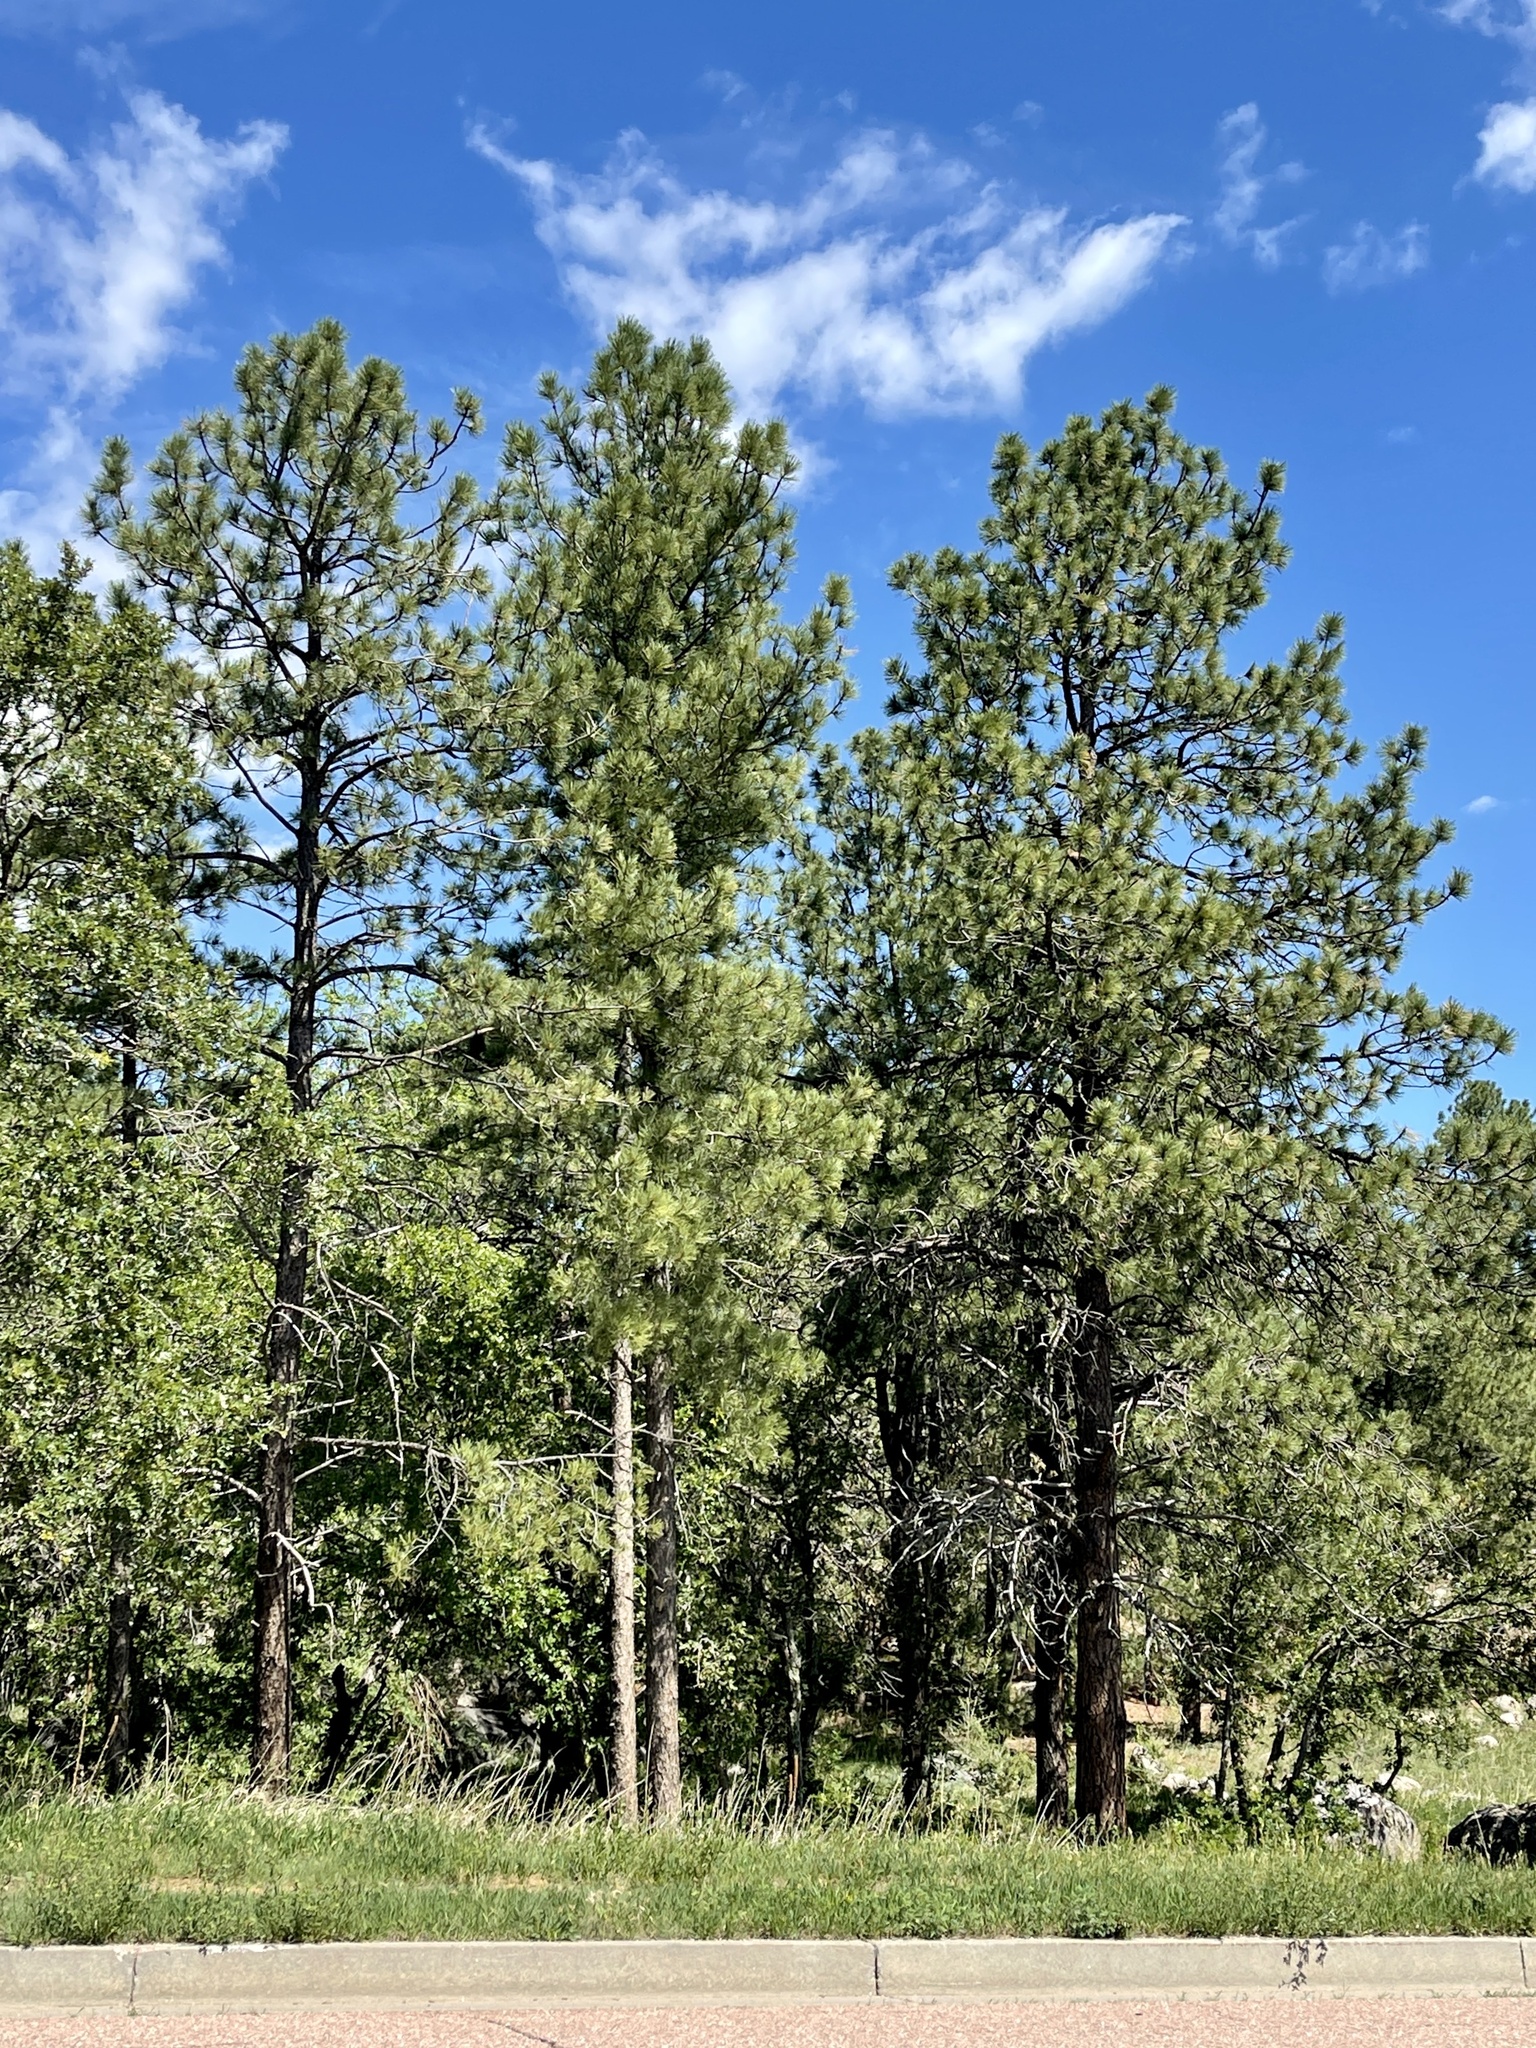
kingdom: Plantae
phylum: Tracheophyta
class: Pinopsida
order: Pinales
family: Pinaceae
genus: Pinus
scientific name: Pinus ponderosa
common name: Western yellow-pine
